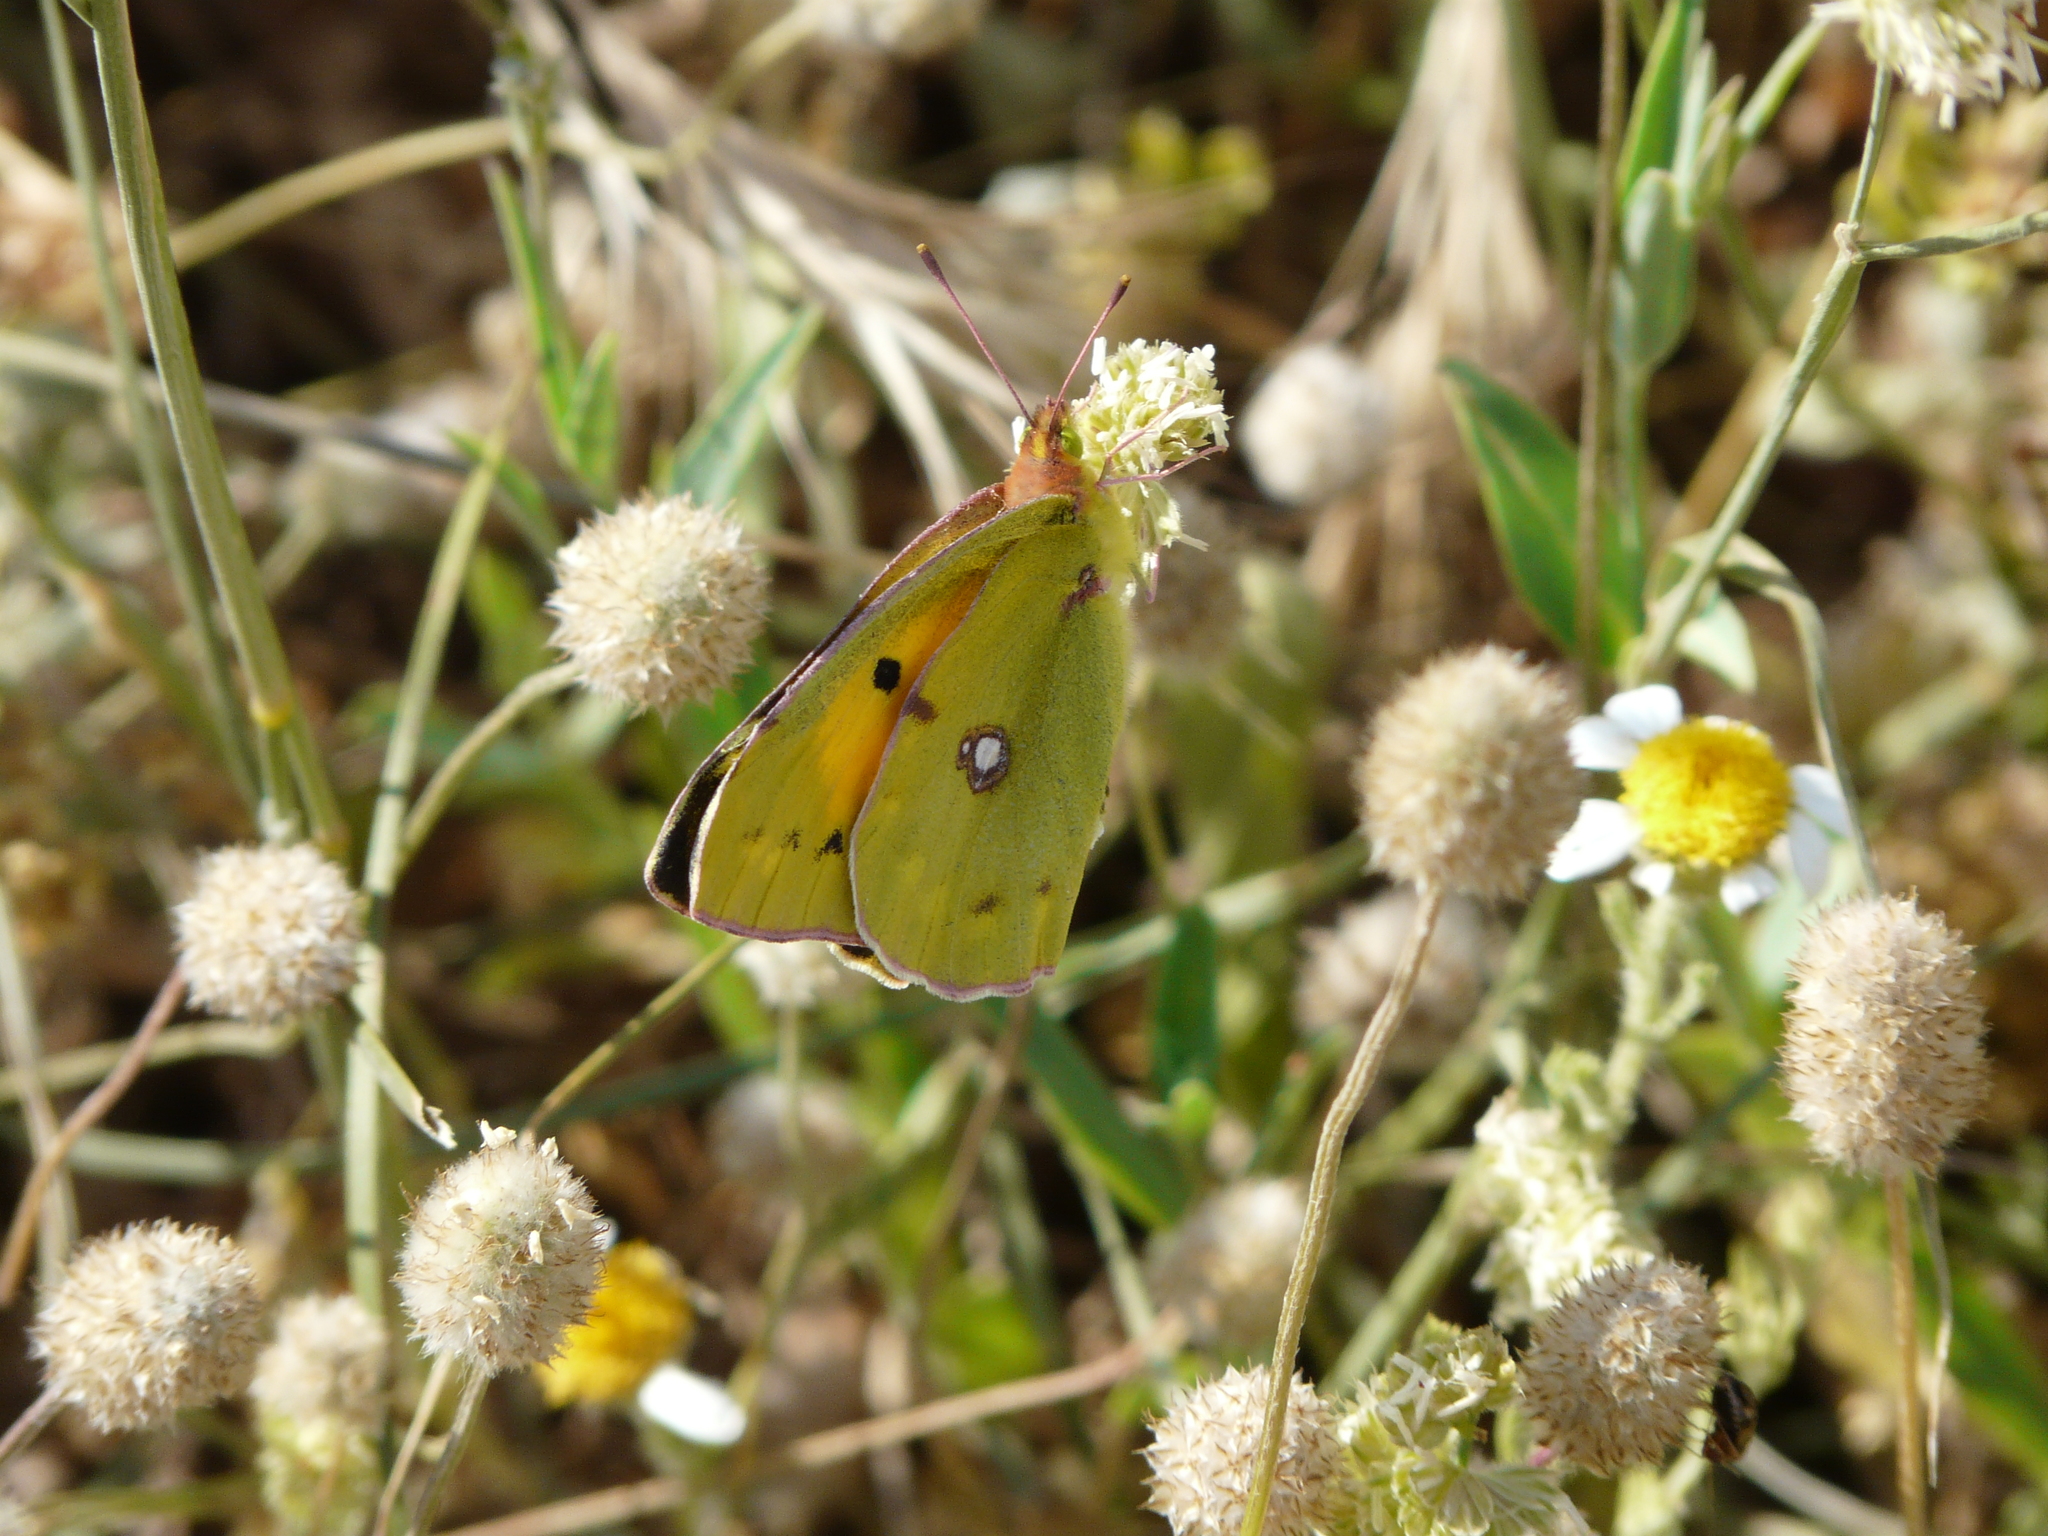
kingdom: Animalia
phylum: Arthropoda
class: Insecta
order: Lepidoptera
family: Pieridae
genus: Colias
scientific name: Colias croceus
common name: Clouded yellow
